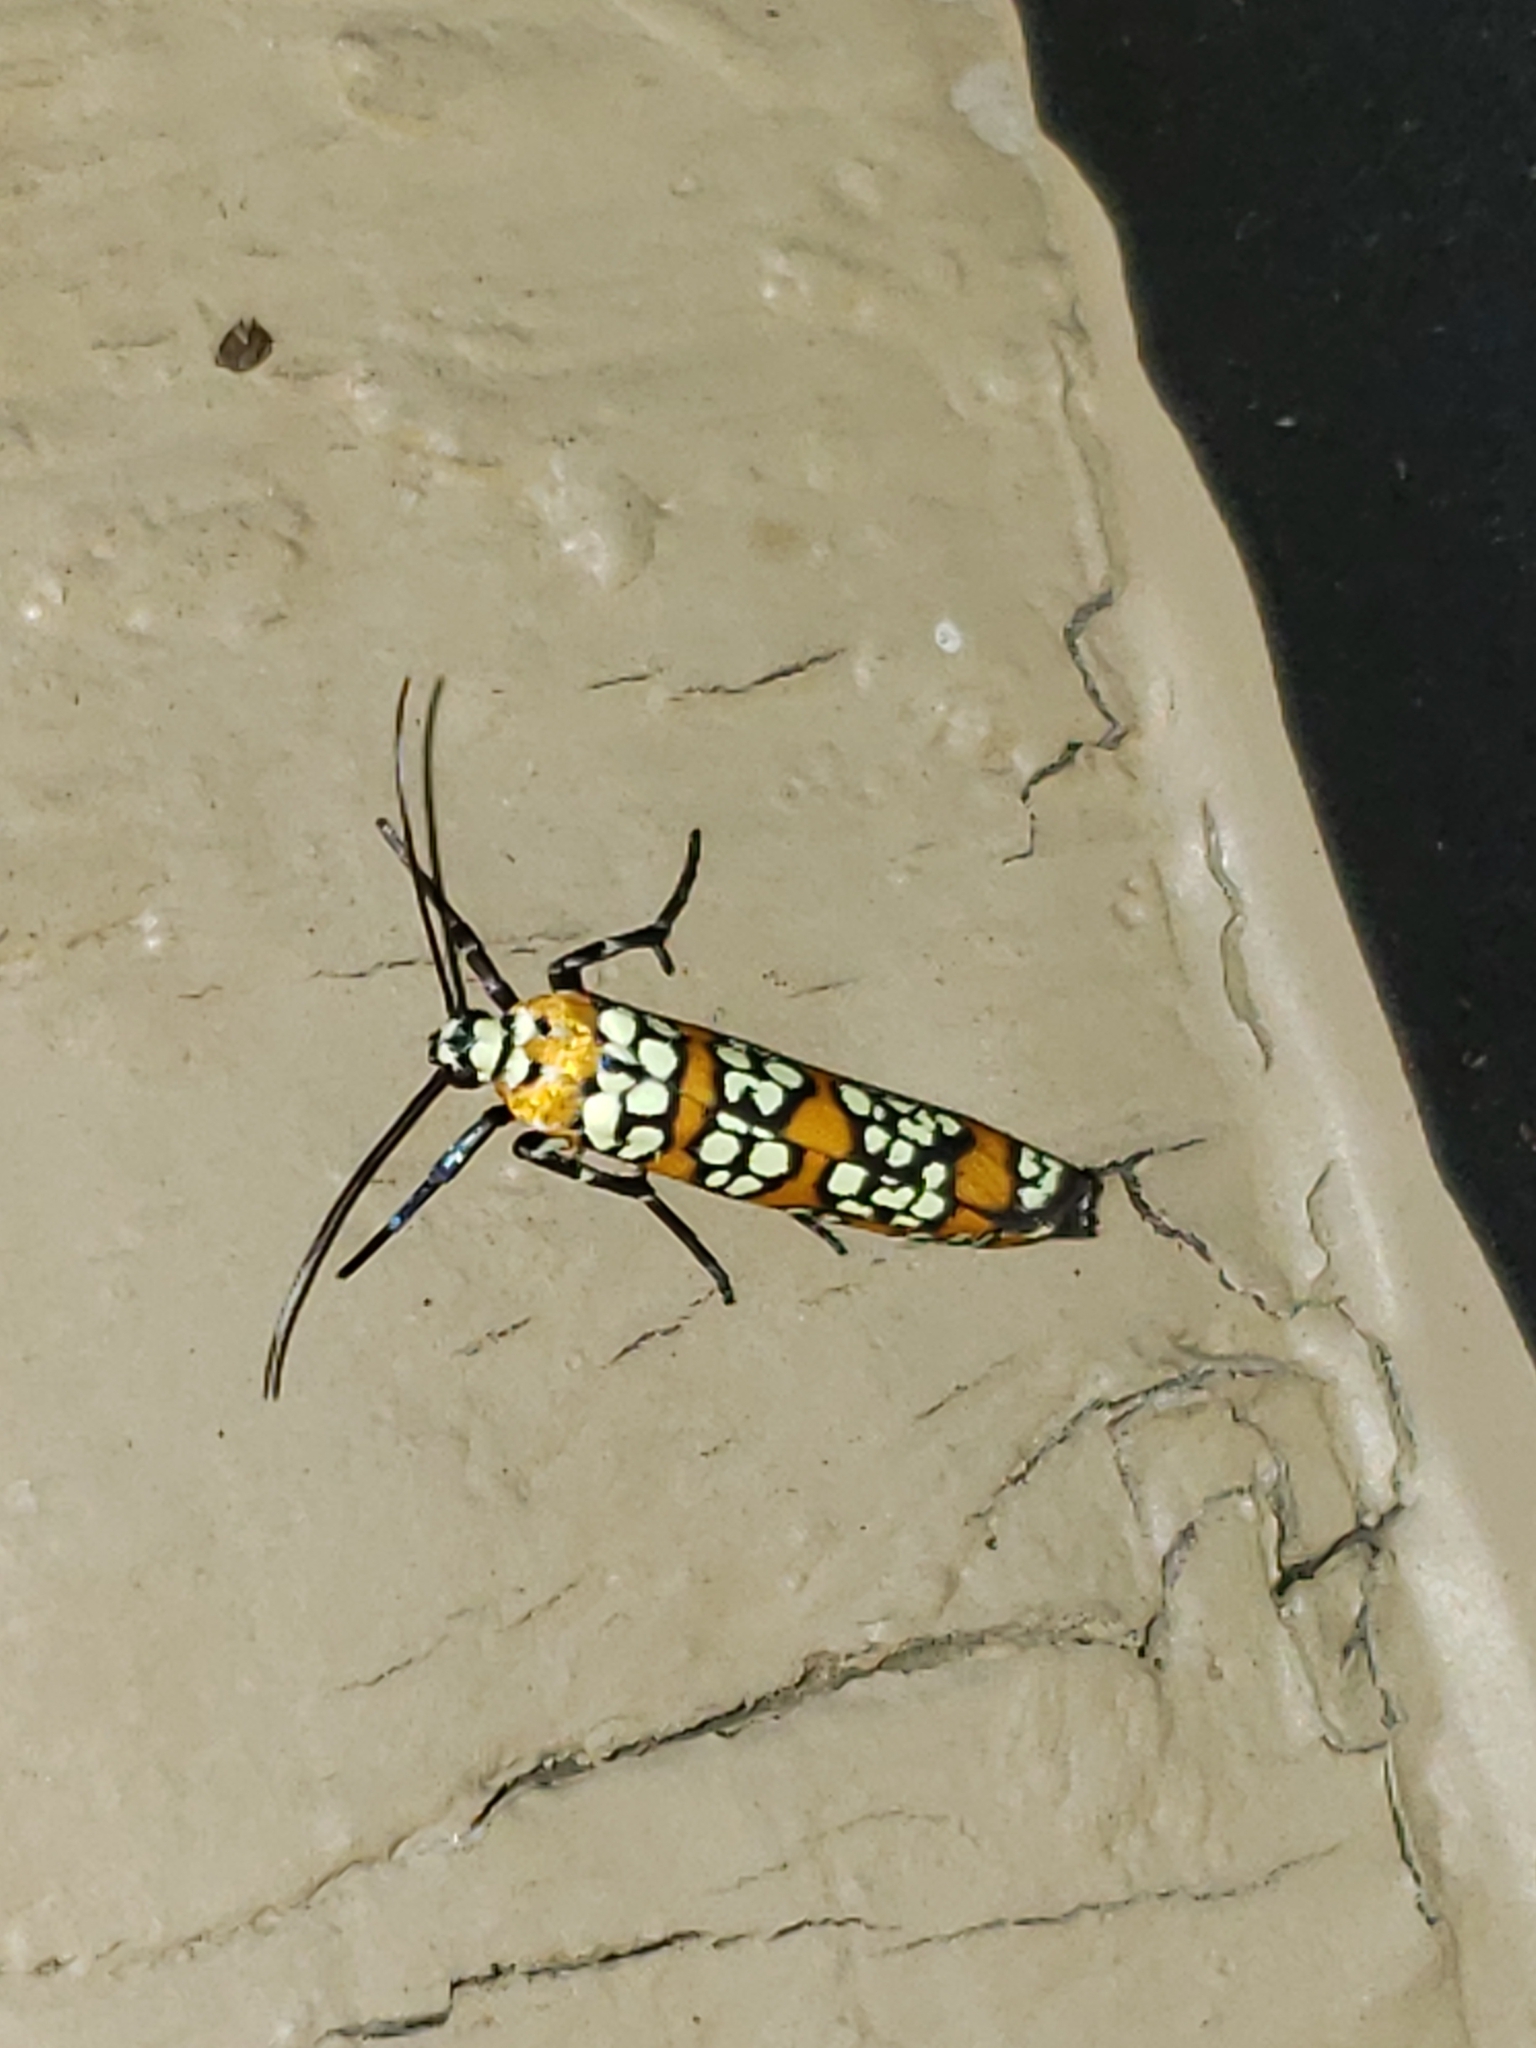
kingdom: Animalia
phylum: Arthropoda
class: Insecta
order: Lepidoptera
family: Attevidae
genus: Atteva
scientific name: Atteva punctella
